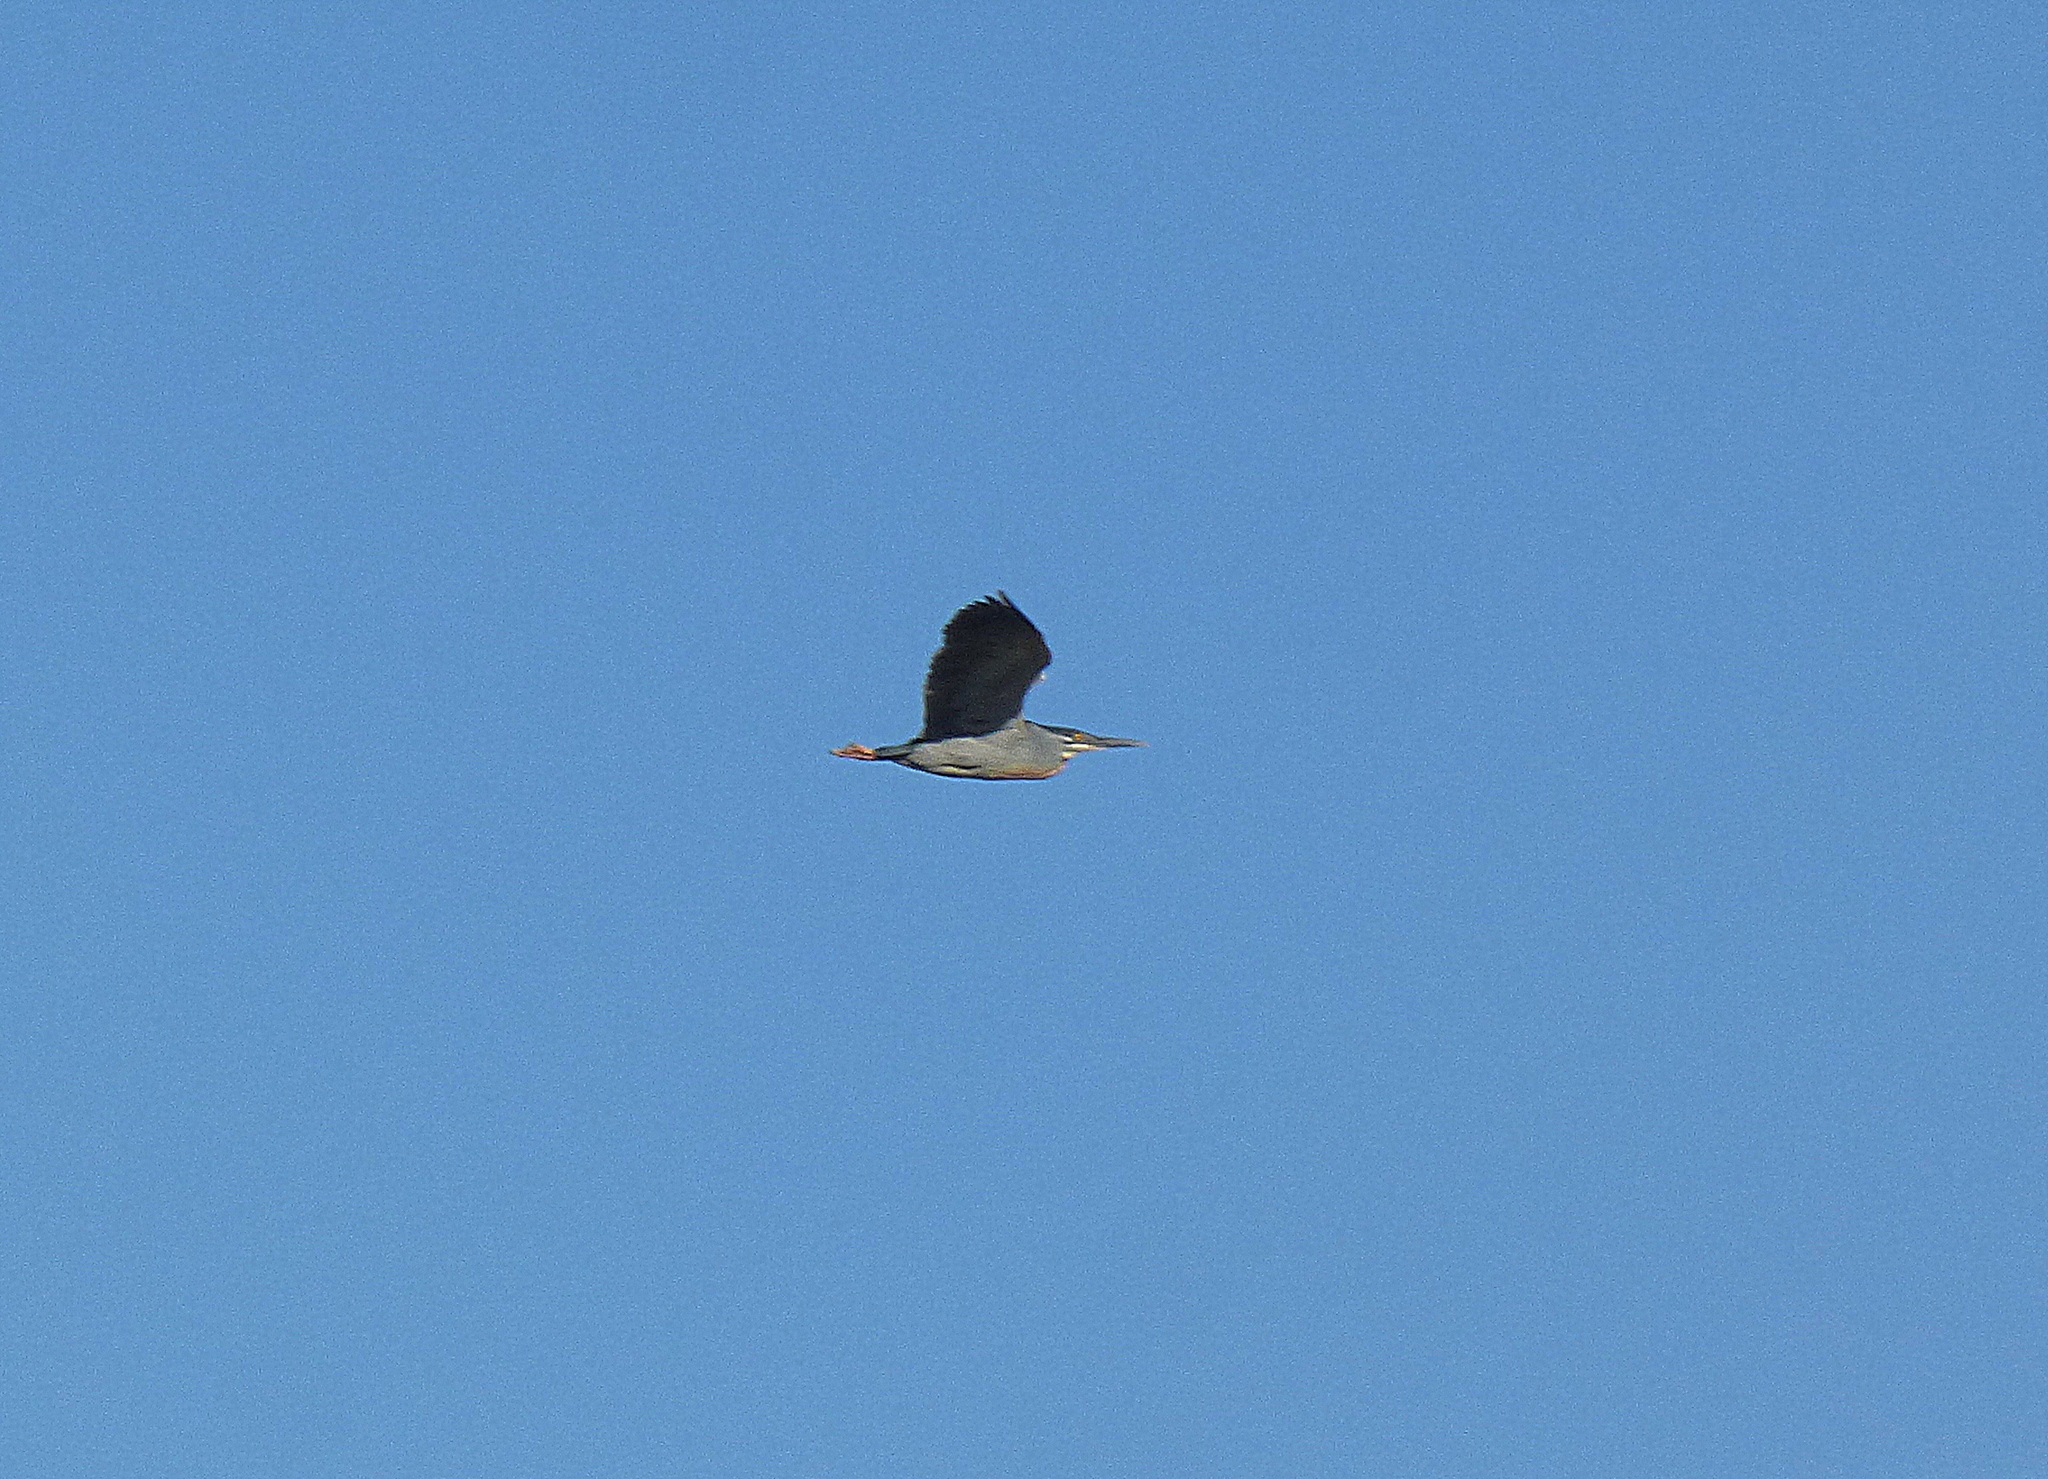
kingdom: Animalia
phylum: Chordata
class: Aves
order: Pelecaniformes
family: Ardeidae
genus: Butorides
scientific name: Butorides striata
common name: Striated heron
